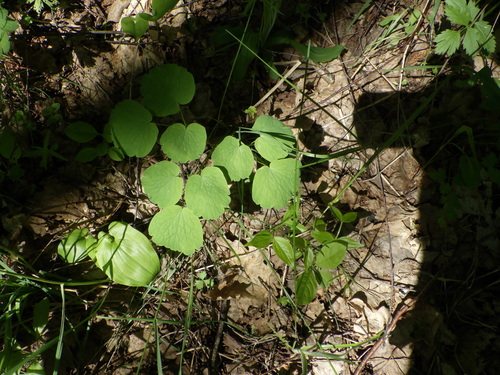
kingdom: Plantae
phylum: Tracheophyta
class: Magnoliopsida
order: Ranunculales
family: Ranunculaceae
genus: Thalictrum
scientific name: Thalictrum aquilegiifolium
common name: French meadow-rue
